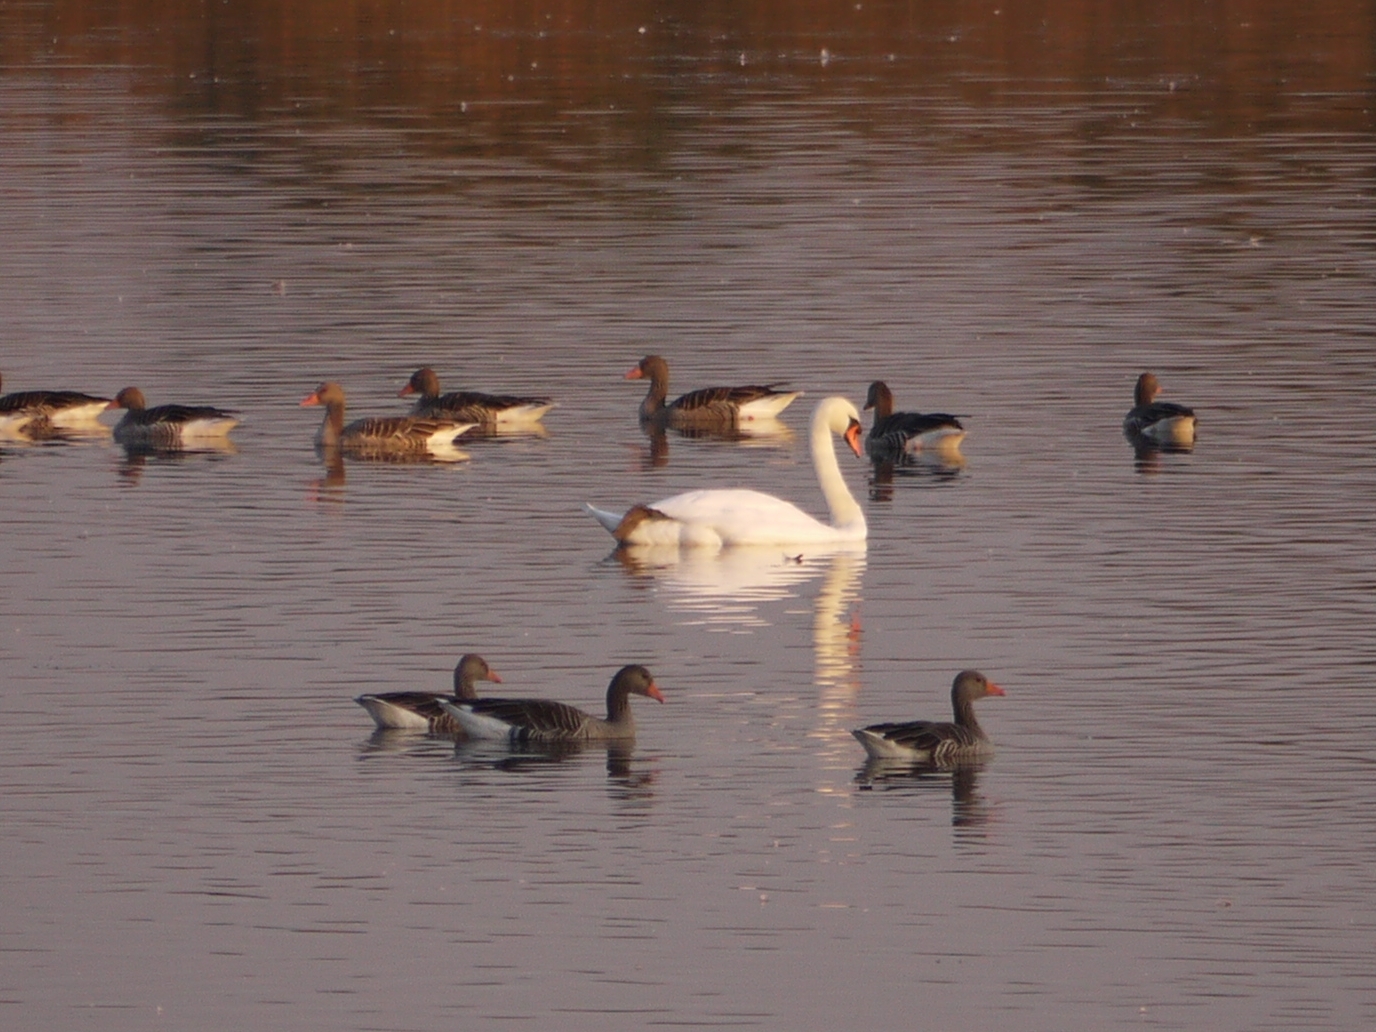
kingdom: Animalia
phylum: Chordata
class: Aves
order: Anseriformes
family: Anatidae
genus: Cygnus
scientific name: Cygnus olor
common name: Mute swan
